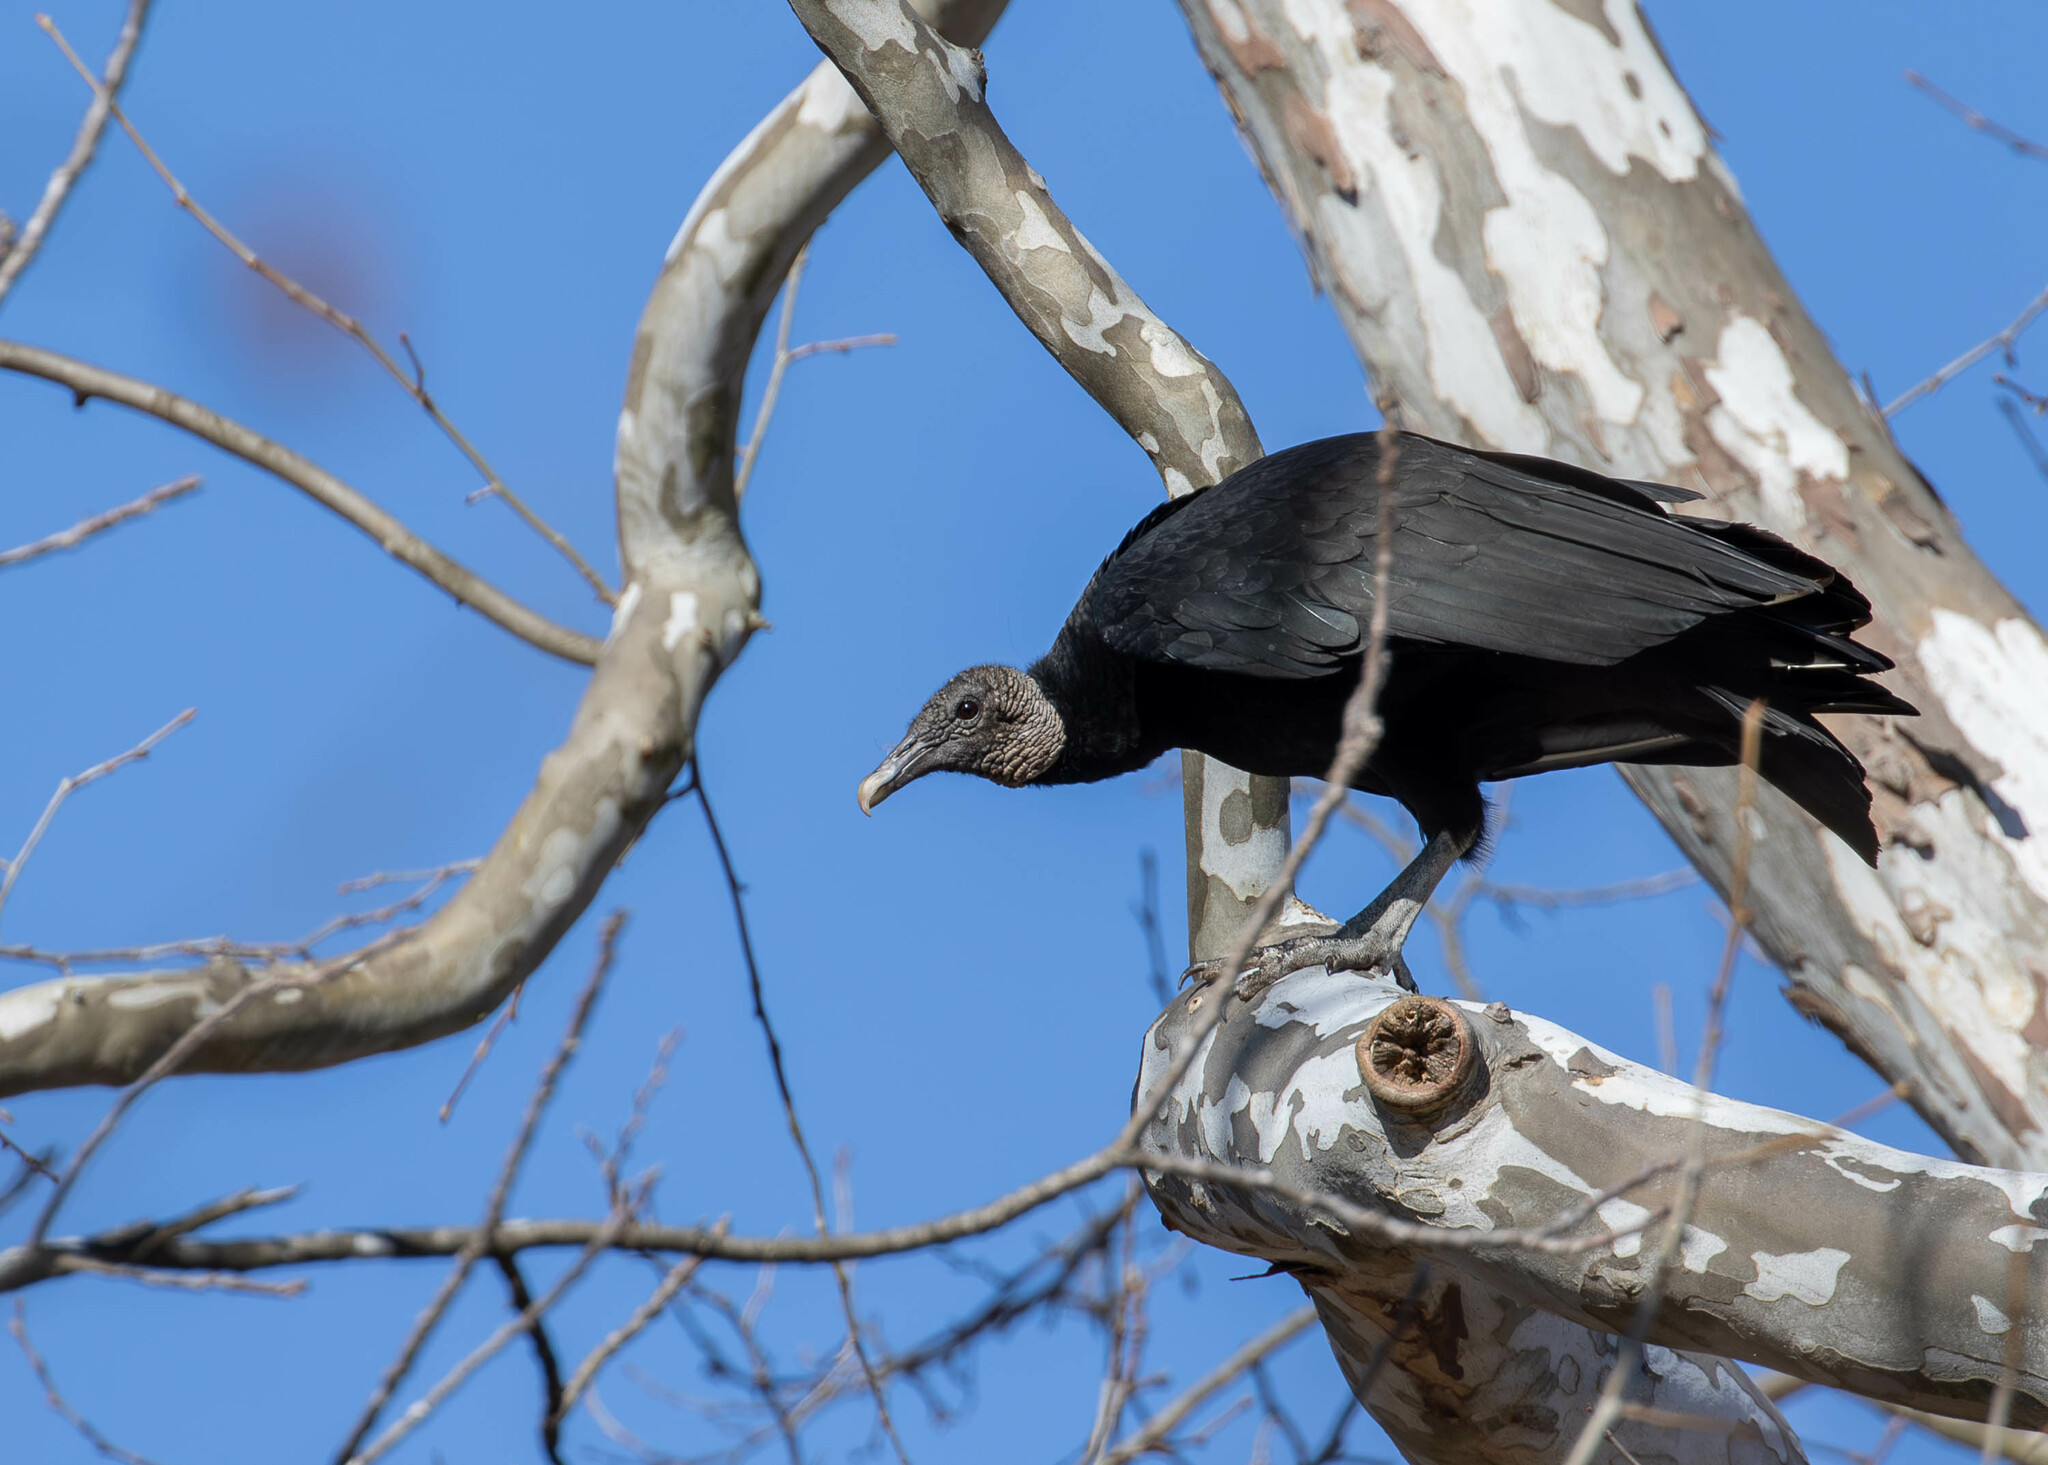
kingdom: Animalia
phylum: Chordata
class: Aves
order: Accipitriformes
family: Cathartidae
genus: Coragyps
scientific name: Coragyps atratus
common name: Black vulture
